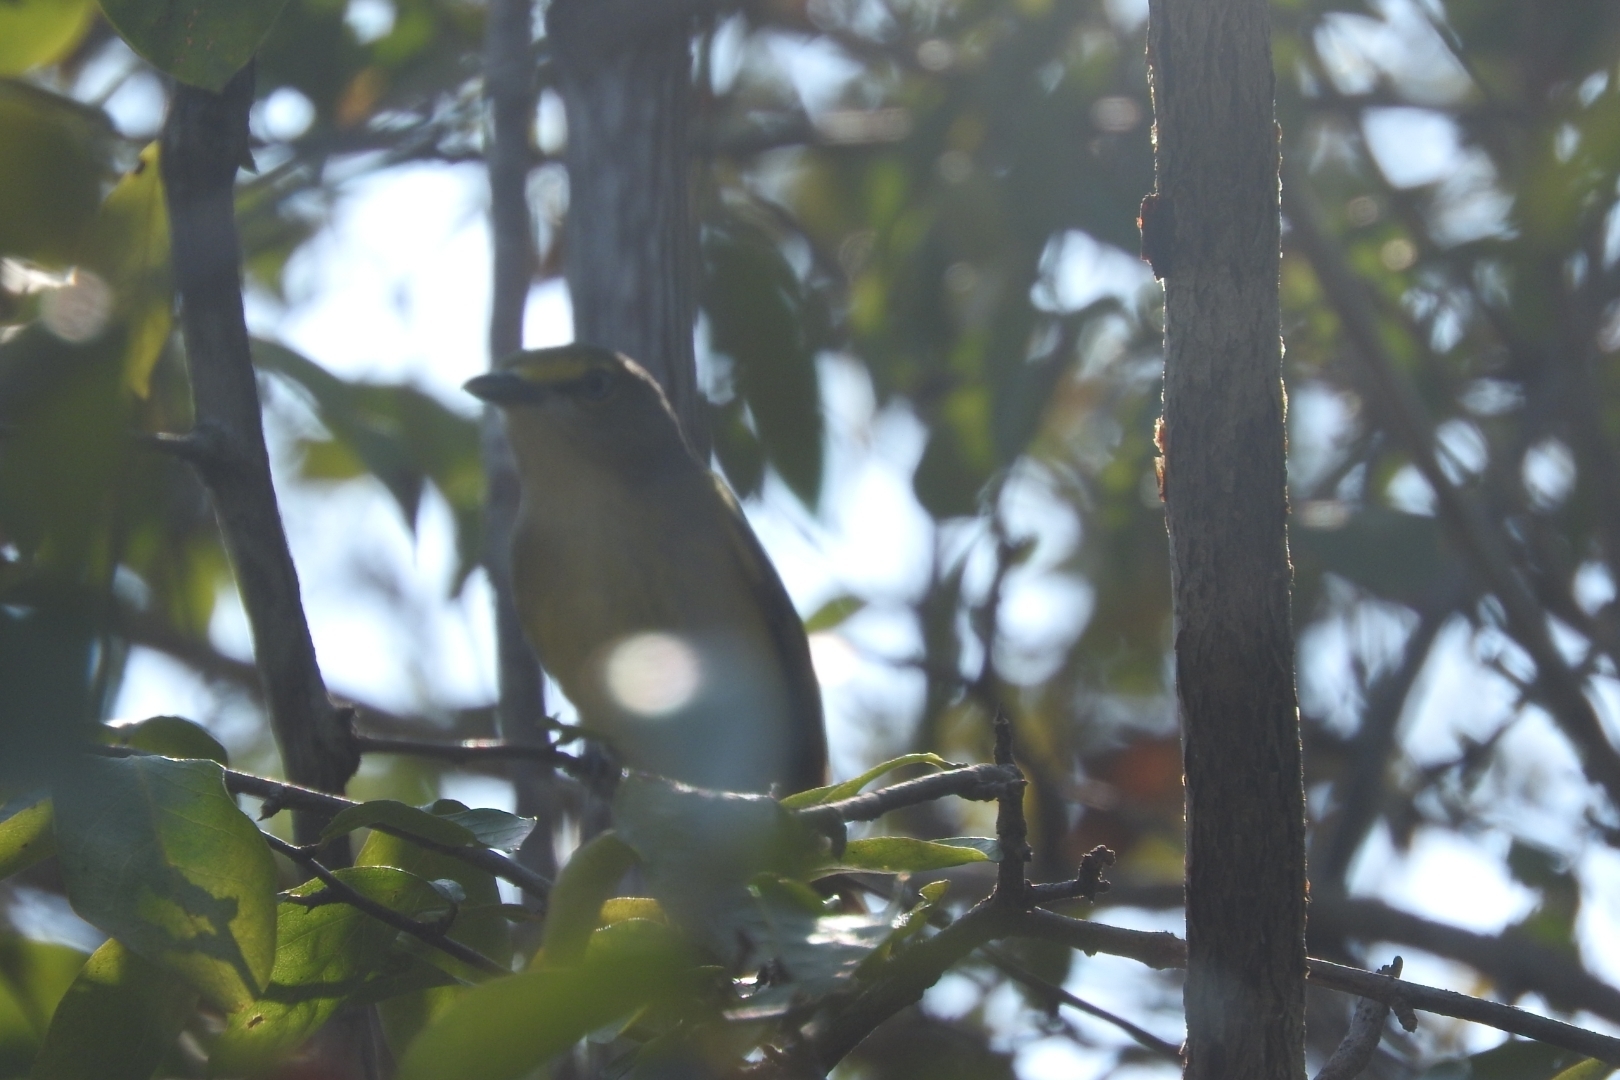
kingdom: Animalia
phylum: Chordata
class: Aves
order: Passeriformes
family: Vireonidae
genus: Vireo
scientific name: Vireo griseus
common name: White-eyed vireo
